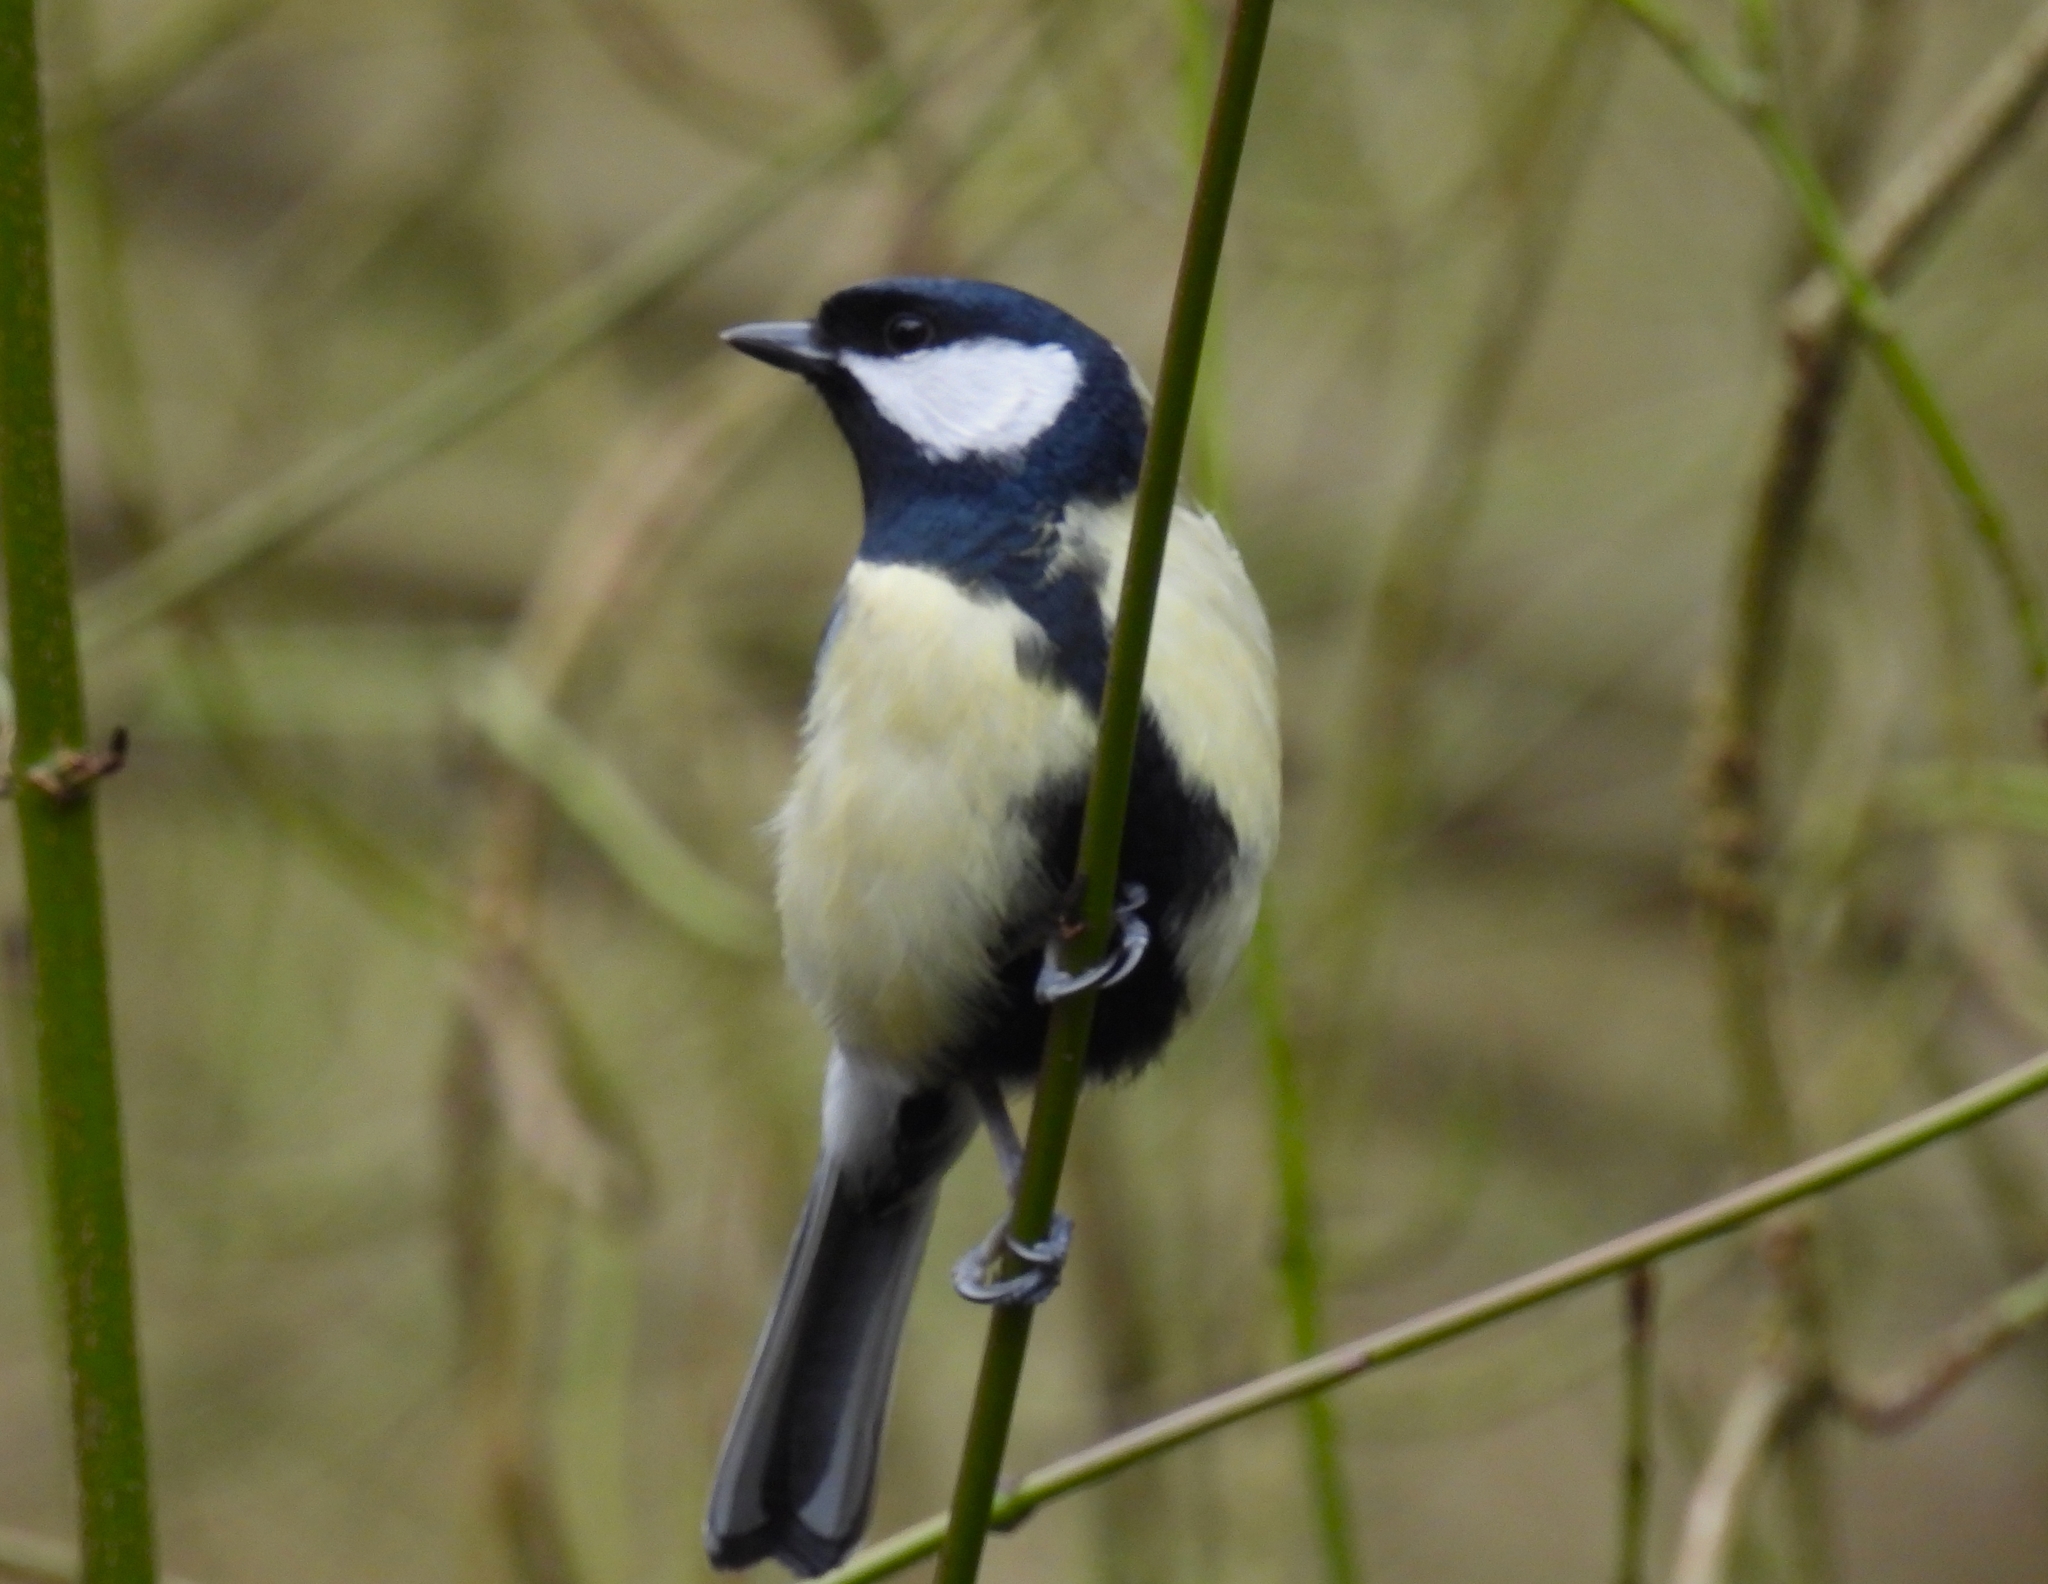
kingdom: Animalia
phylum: Chordata
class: Aves
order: Passeriformes
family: Paridae
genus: Parus
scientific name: Parus major
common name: Great tit
